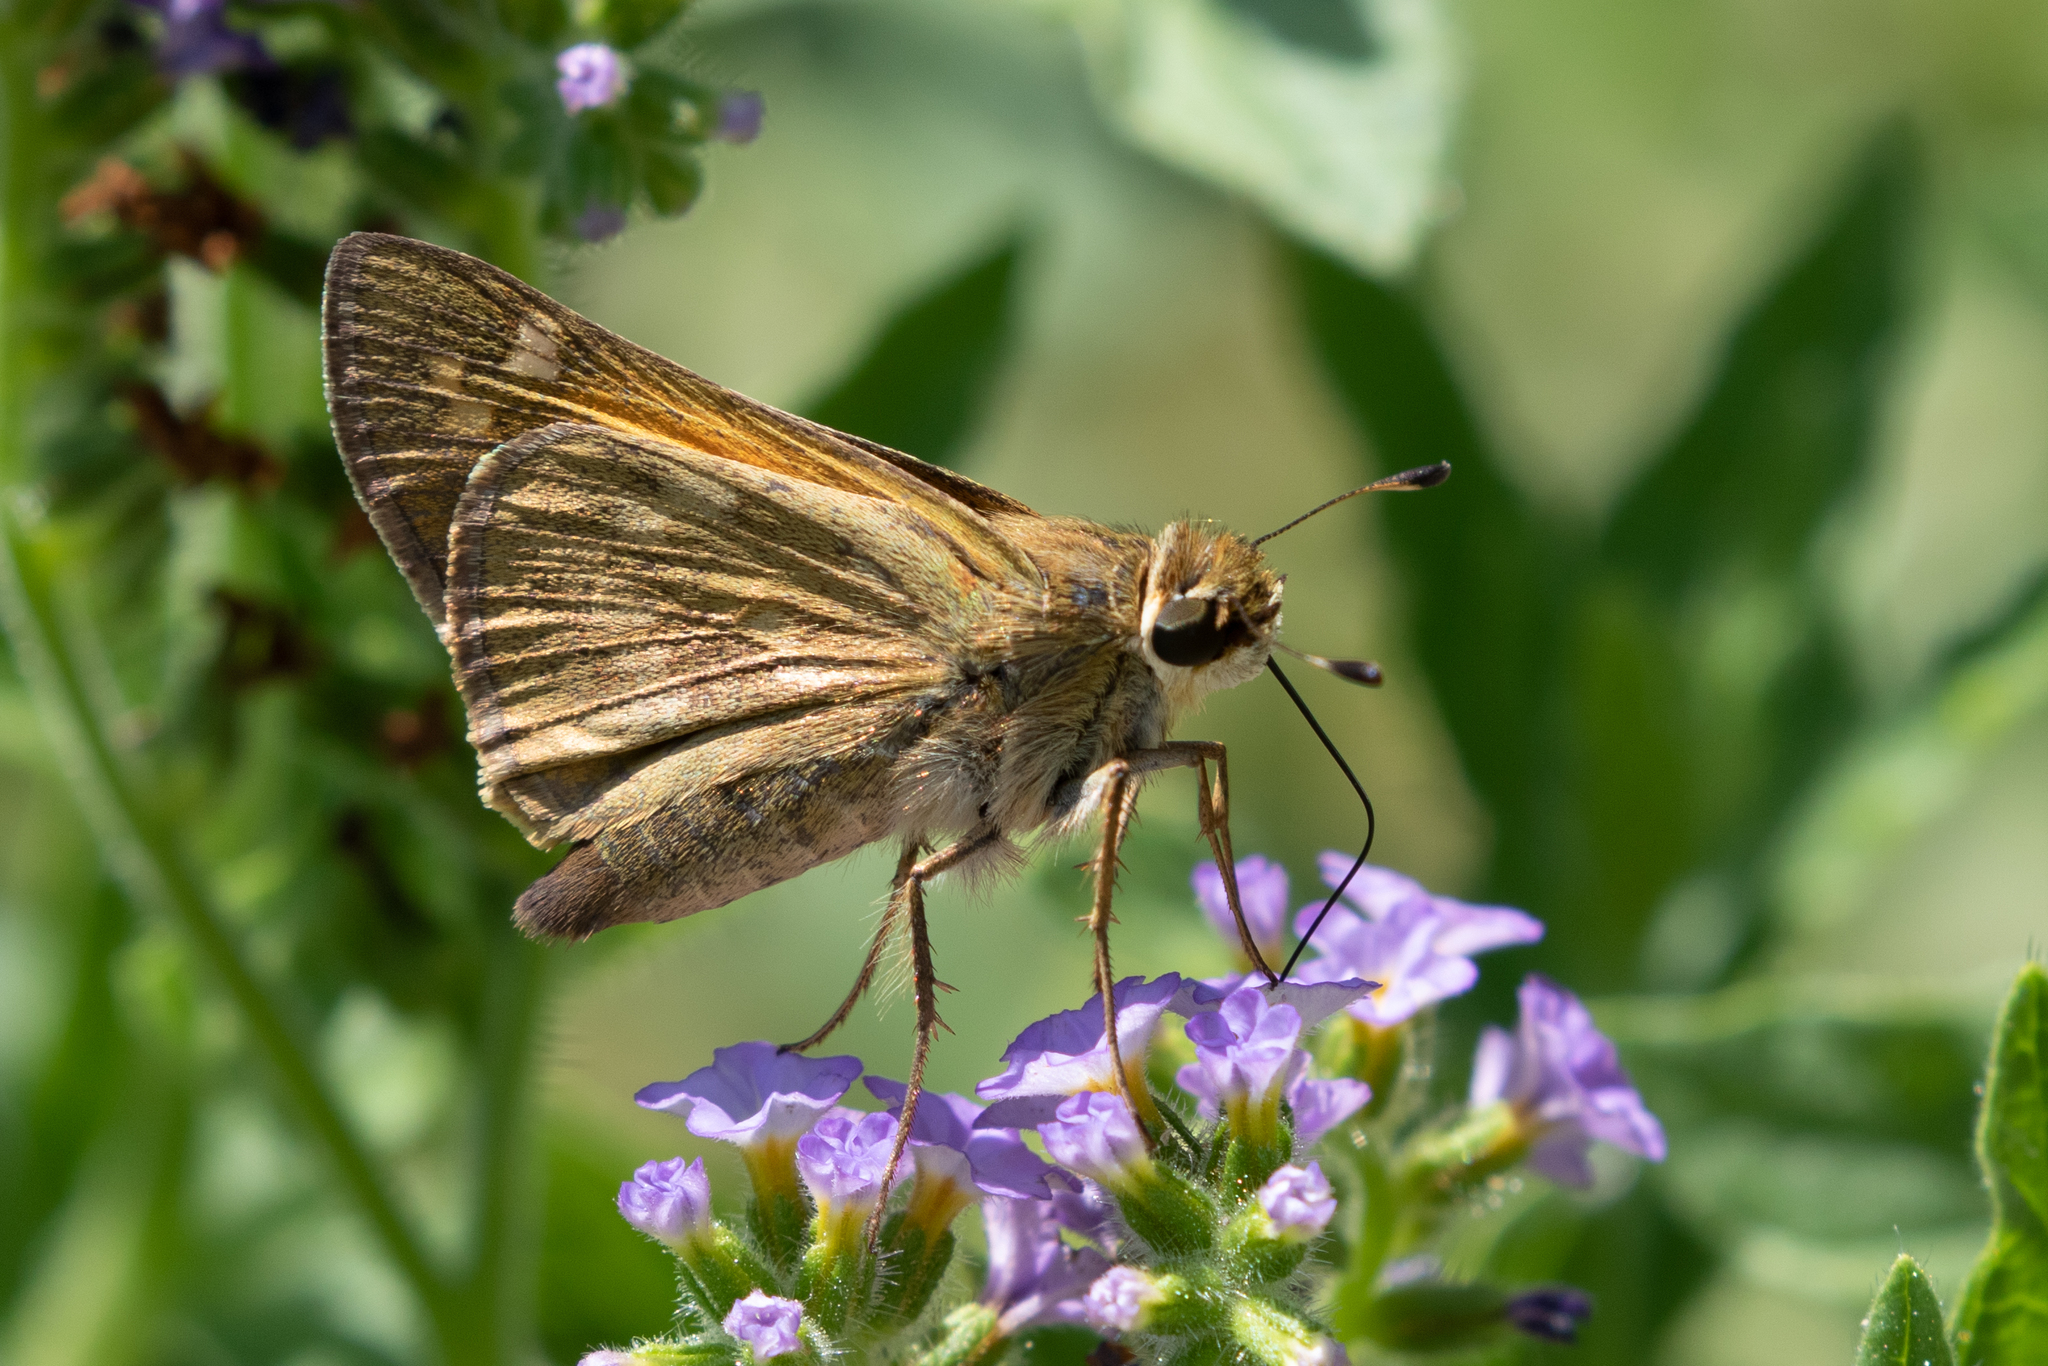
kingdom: Animalia
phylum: Arthropoda
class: Insecta
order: Lepidoptera
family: Hesperiidae
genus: Atalopedes
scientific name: Atalopedes
